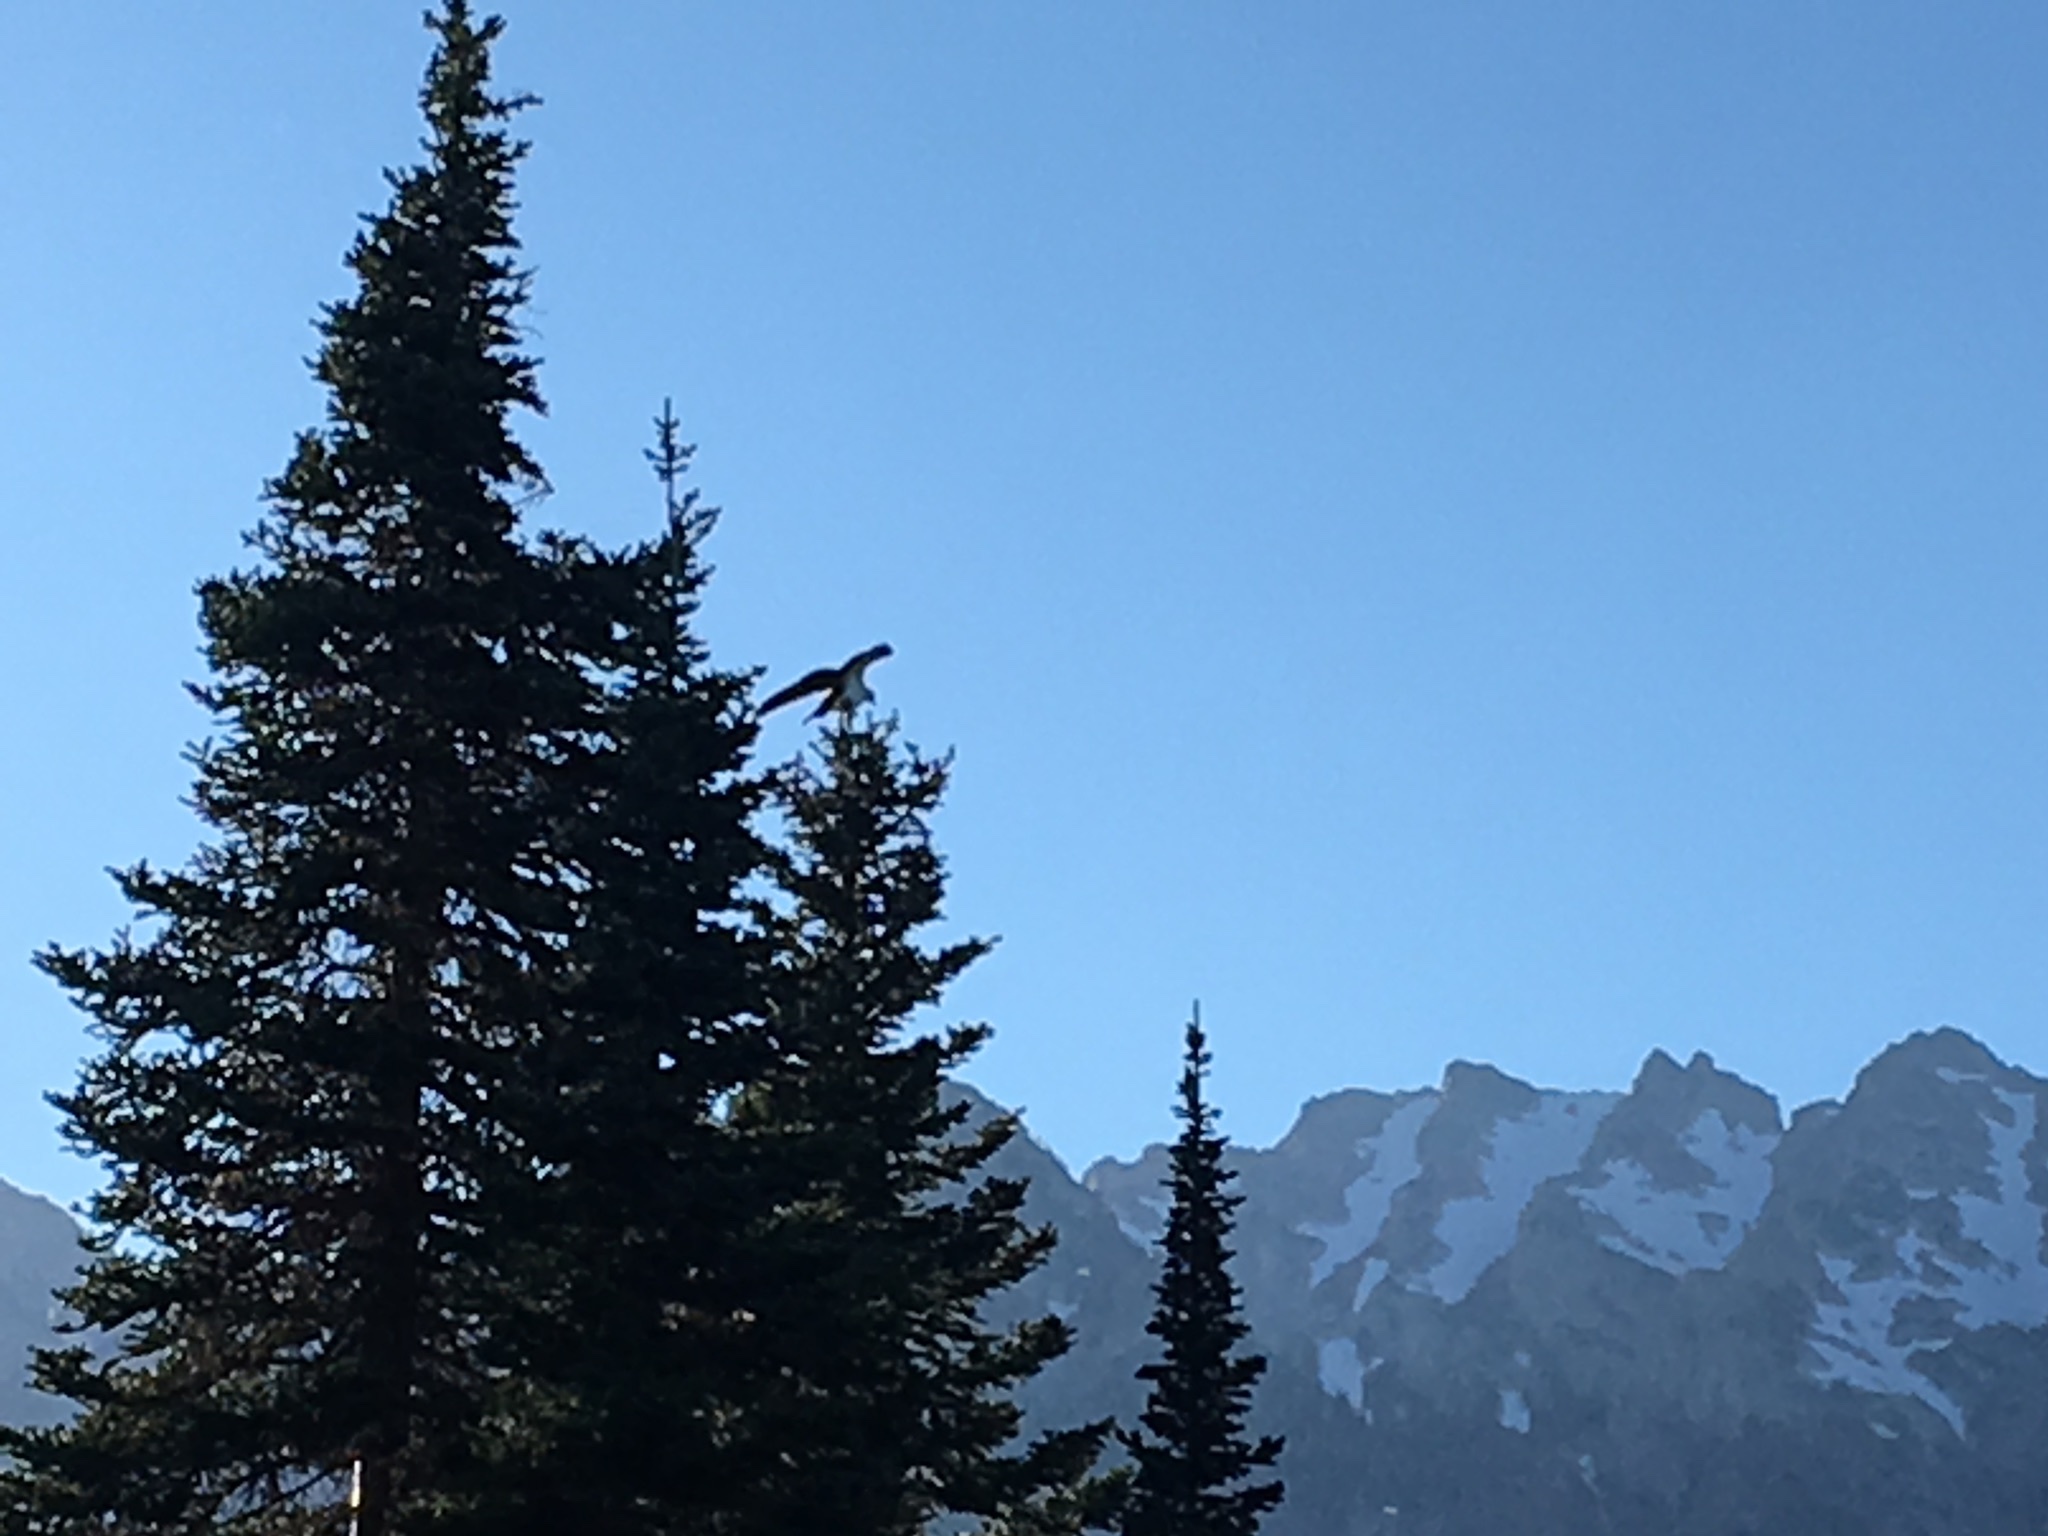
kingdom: Animalia
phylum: Chordata
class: Aves
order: Accipitriformes
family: Pandionidae
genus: Pandion
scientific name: Pandion haliaetus
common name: Osprey
